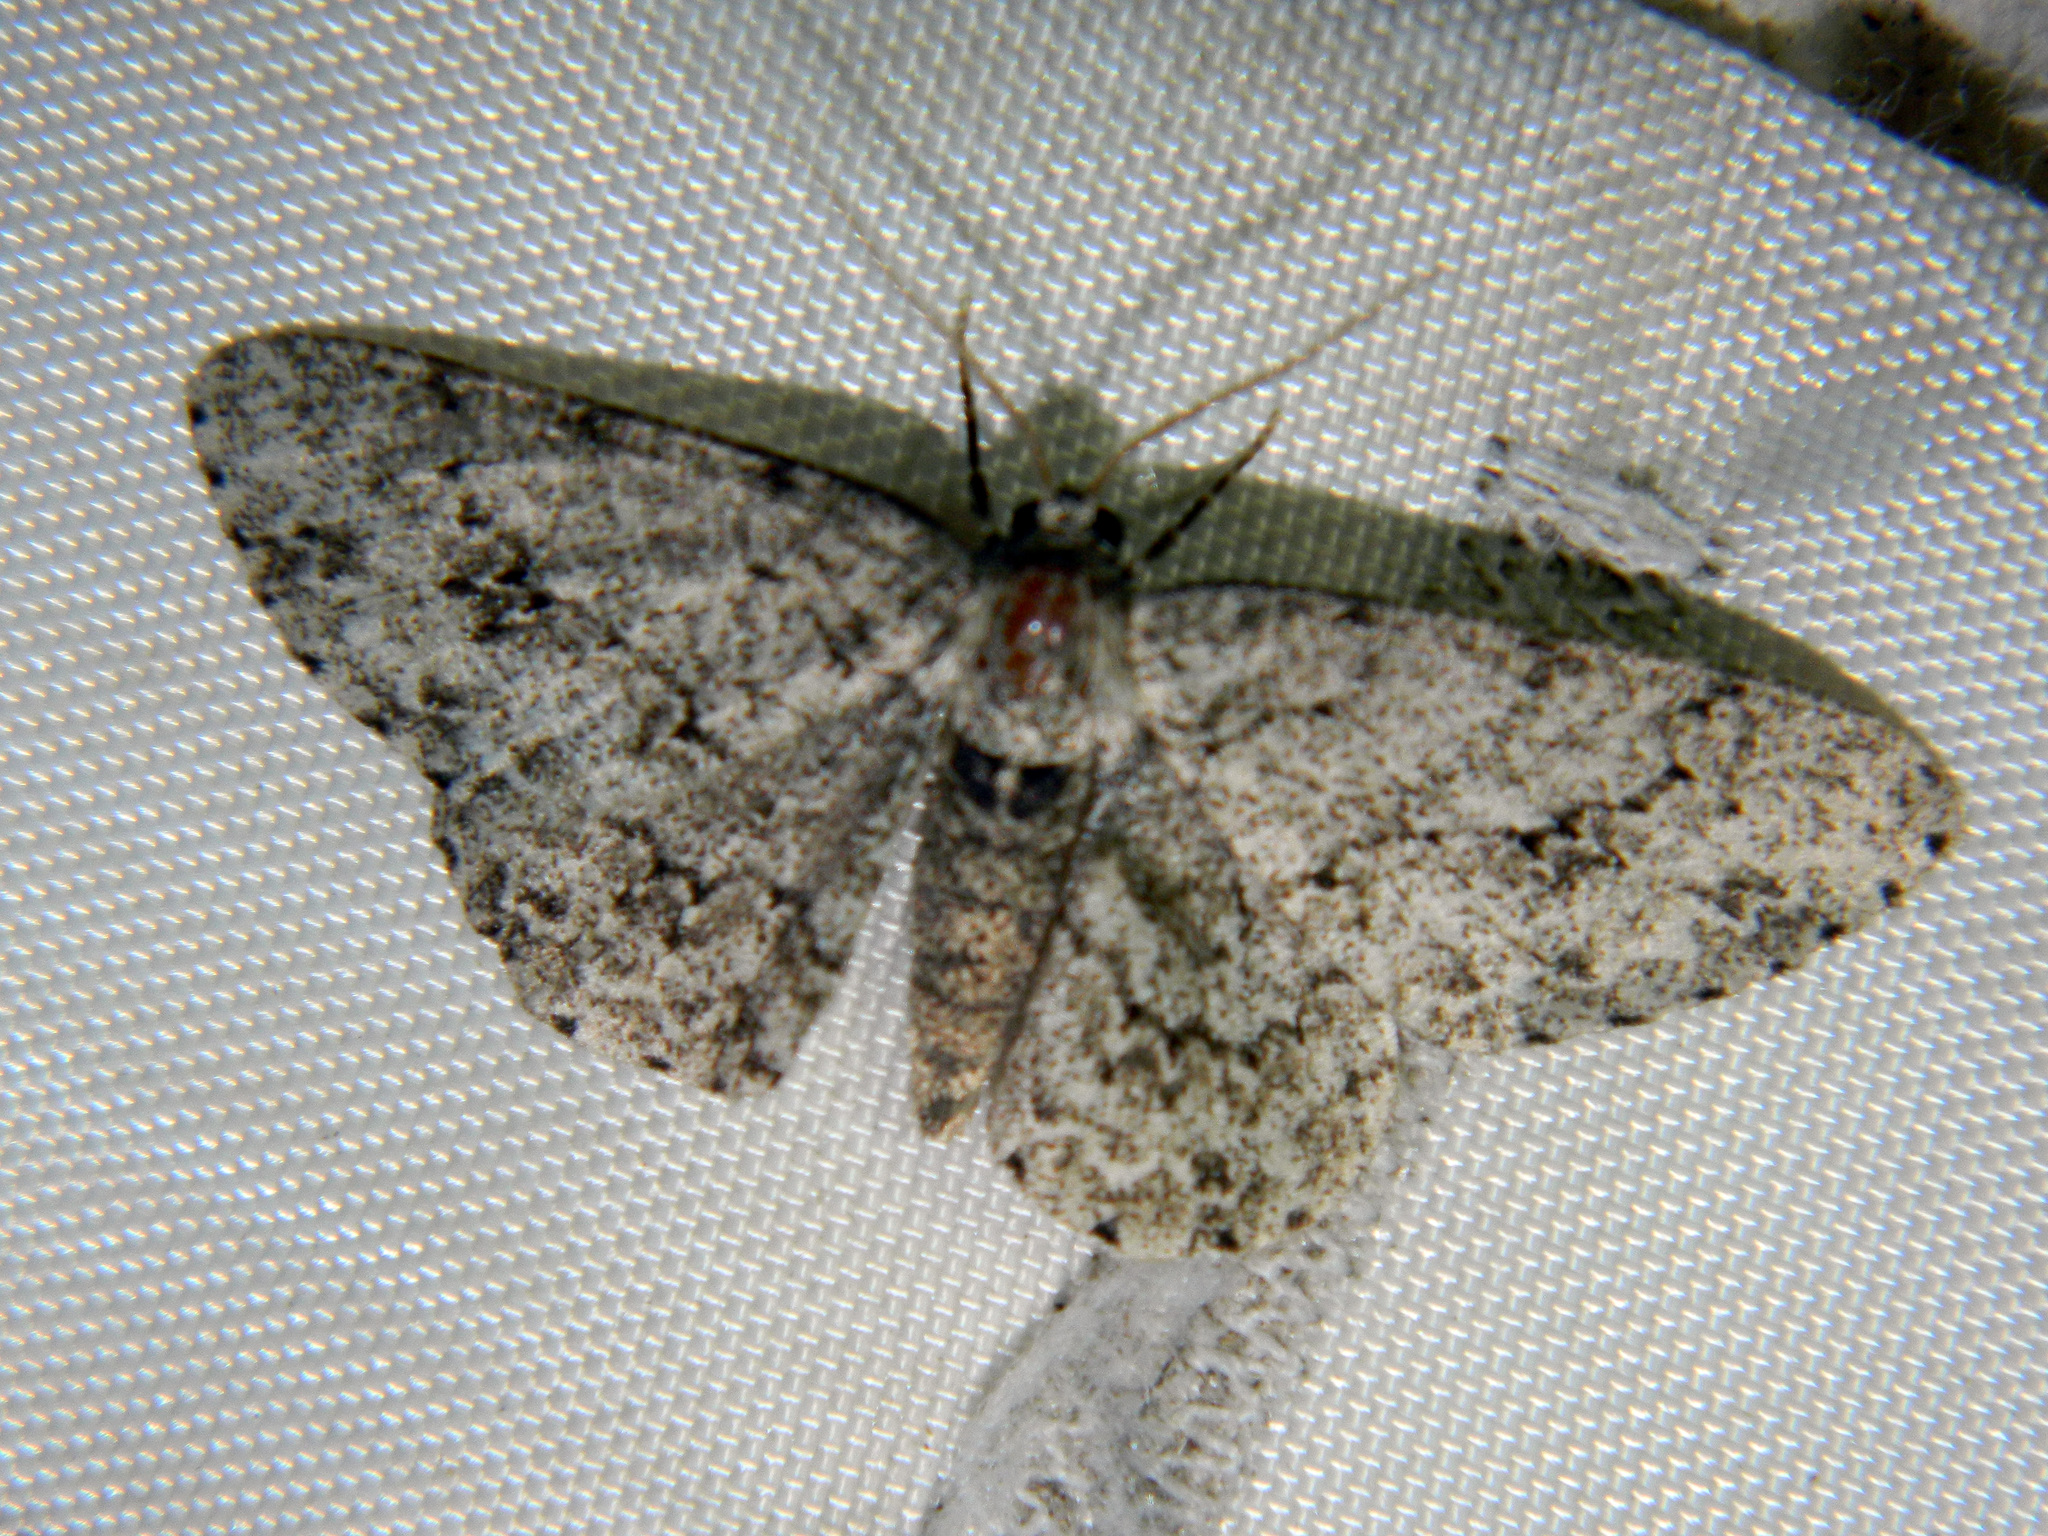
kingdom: Animalia
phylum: Arthropoda
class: Insecta
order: Lepidoptera
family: Geometridae
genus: Ectropis
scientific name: Ectropis crepuscularia
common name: Engrailed
